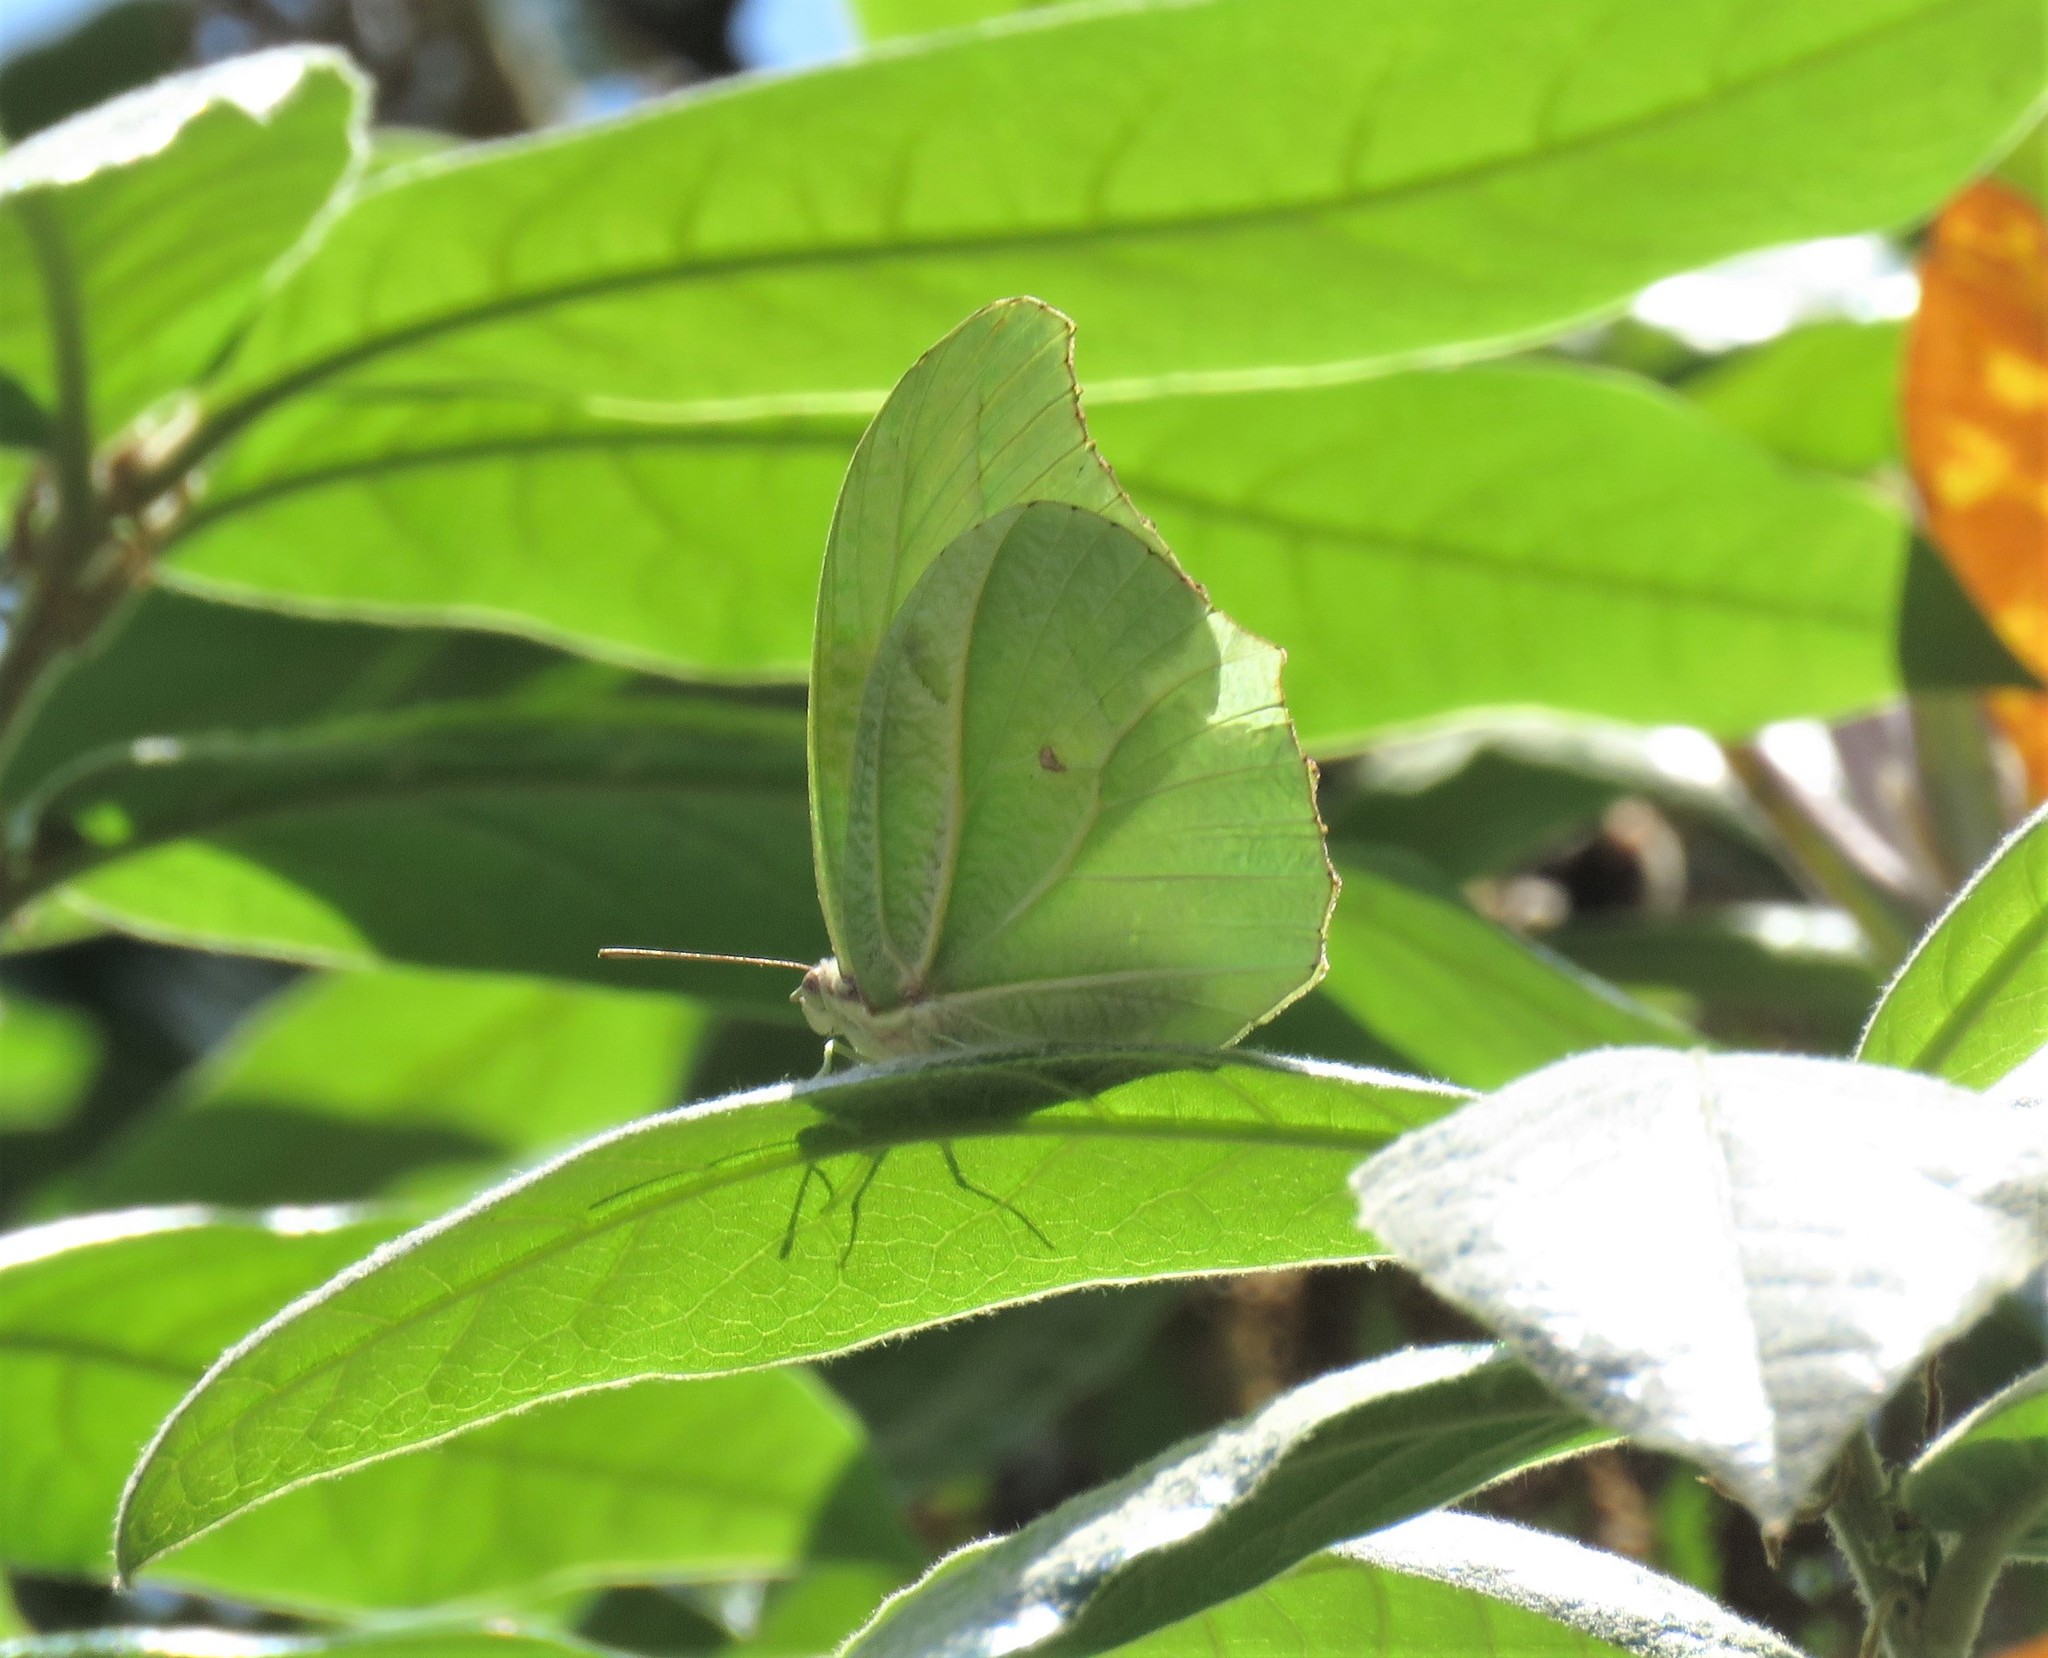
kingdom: Animalia
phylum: Arthropoda
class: Insecta
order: Lepidoptera
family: Pieridae
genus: Anteos
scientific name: Anteos clorinde
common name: White angled sulphur
